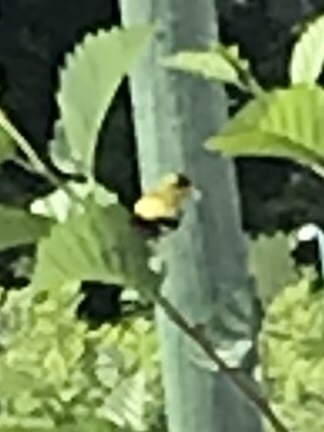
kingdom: Animalia
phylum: Chordata
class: Aves
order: Passeriformes
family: Fringillidae
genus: Spinus
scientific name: Spinus tristis
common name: American goldfinch
